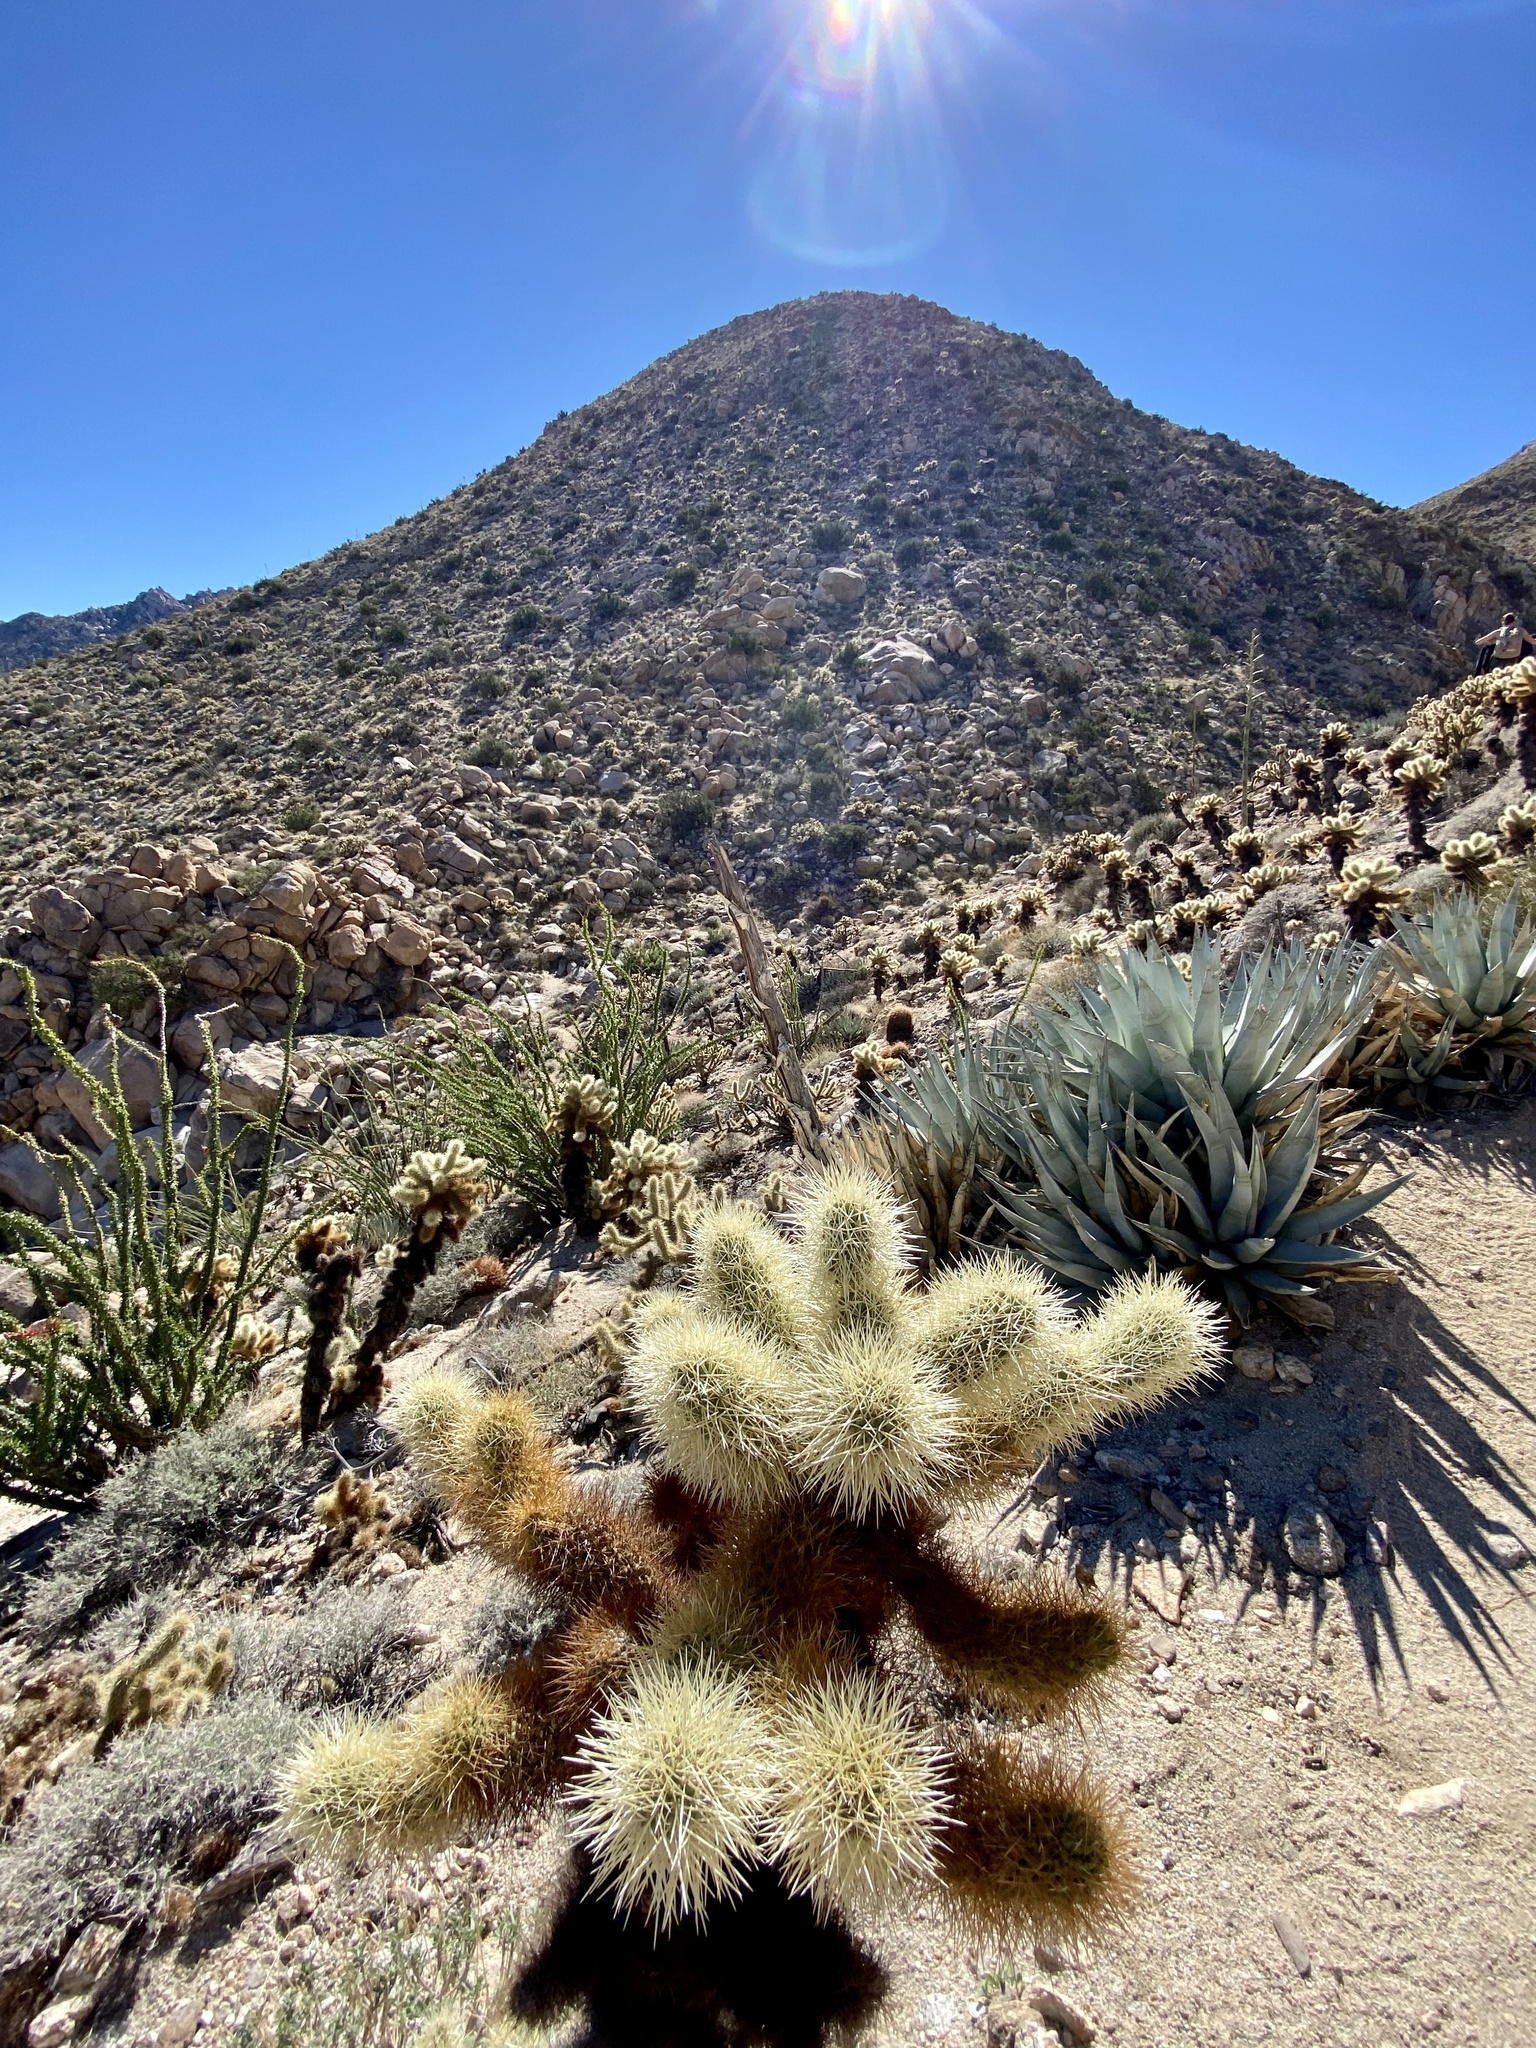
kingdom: Plantae
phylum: Tracheophyta
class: Magnoliopsida
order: Caryophyllales
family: Cactaceae
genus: Cylindropuntia
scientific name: Cylindropuntia fosbergii
